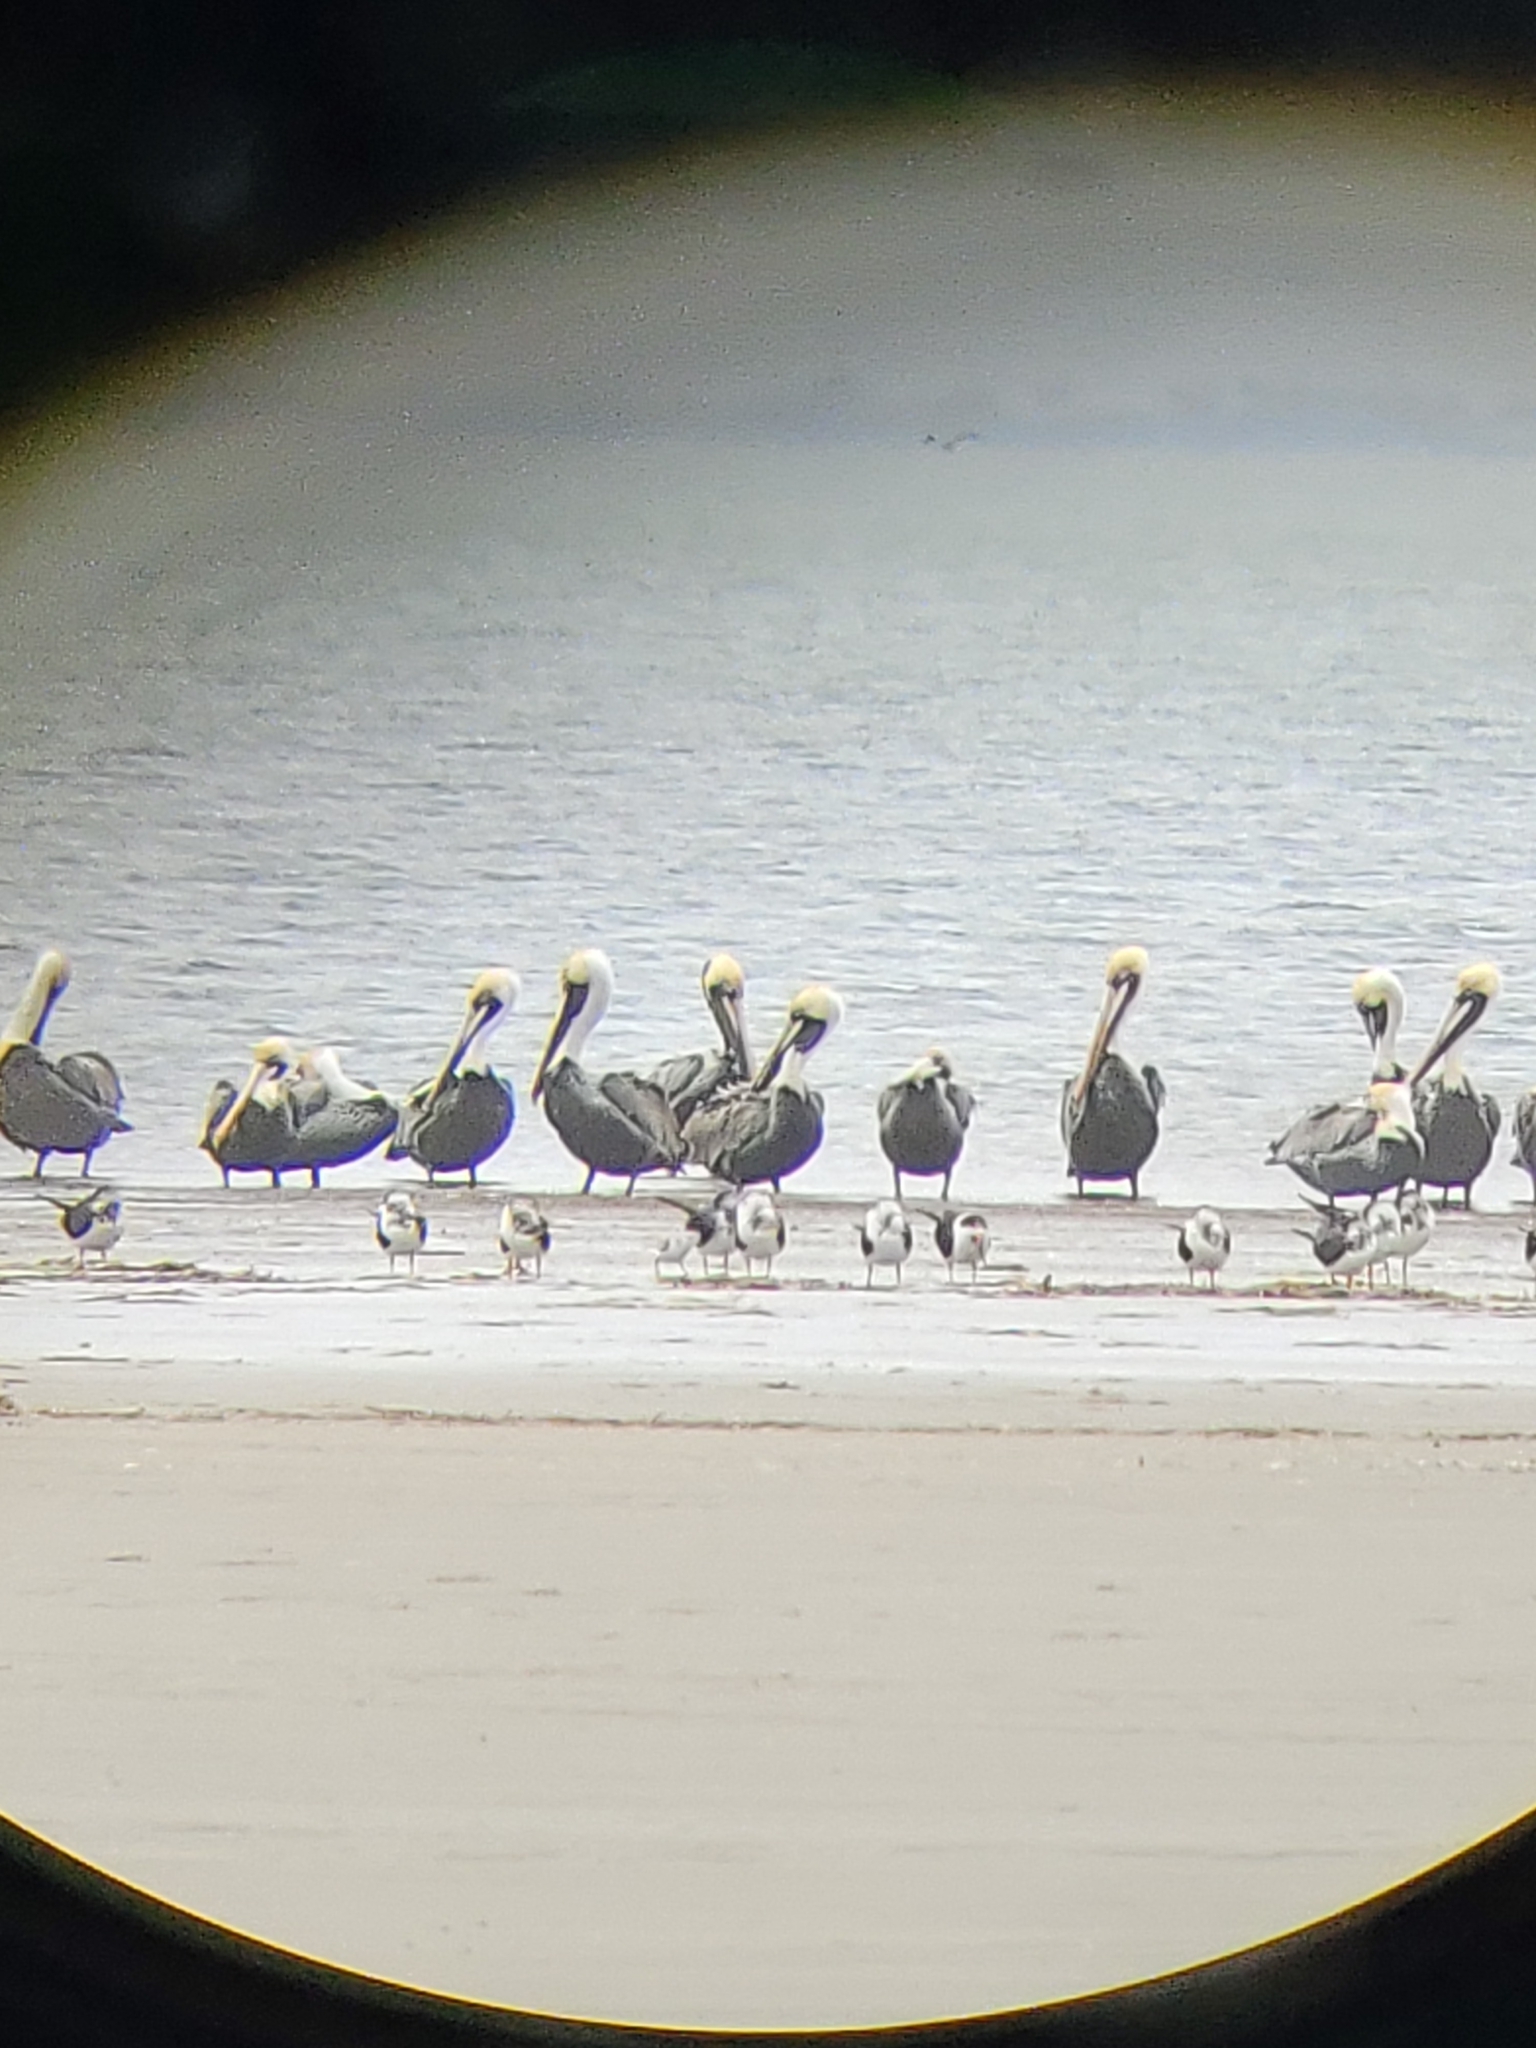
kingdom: Animalia
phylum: Chordata
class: Aves
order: Pelecaniformes
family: Pelecanidae
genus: Pelecanus
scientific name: Pelecanus occidentalis
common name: Brown pelican
